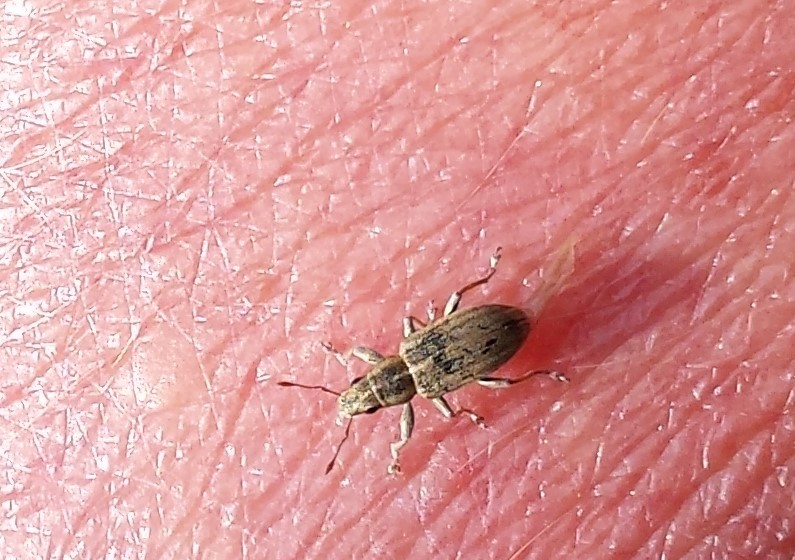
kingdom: Animalia
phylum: Arthropoda
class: Insecta
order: Coleoptera
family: Curculionidae
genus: Sitona
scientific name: Sitona lineatus
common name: Weevil
